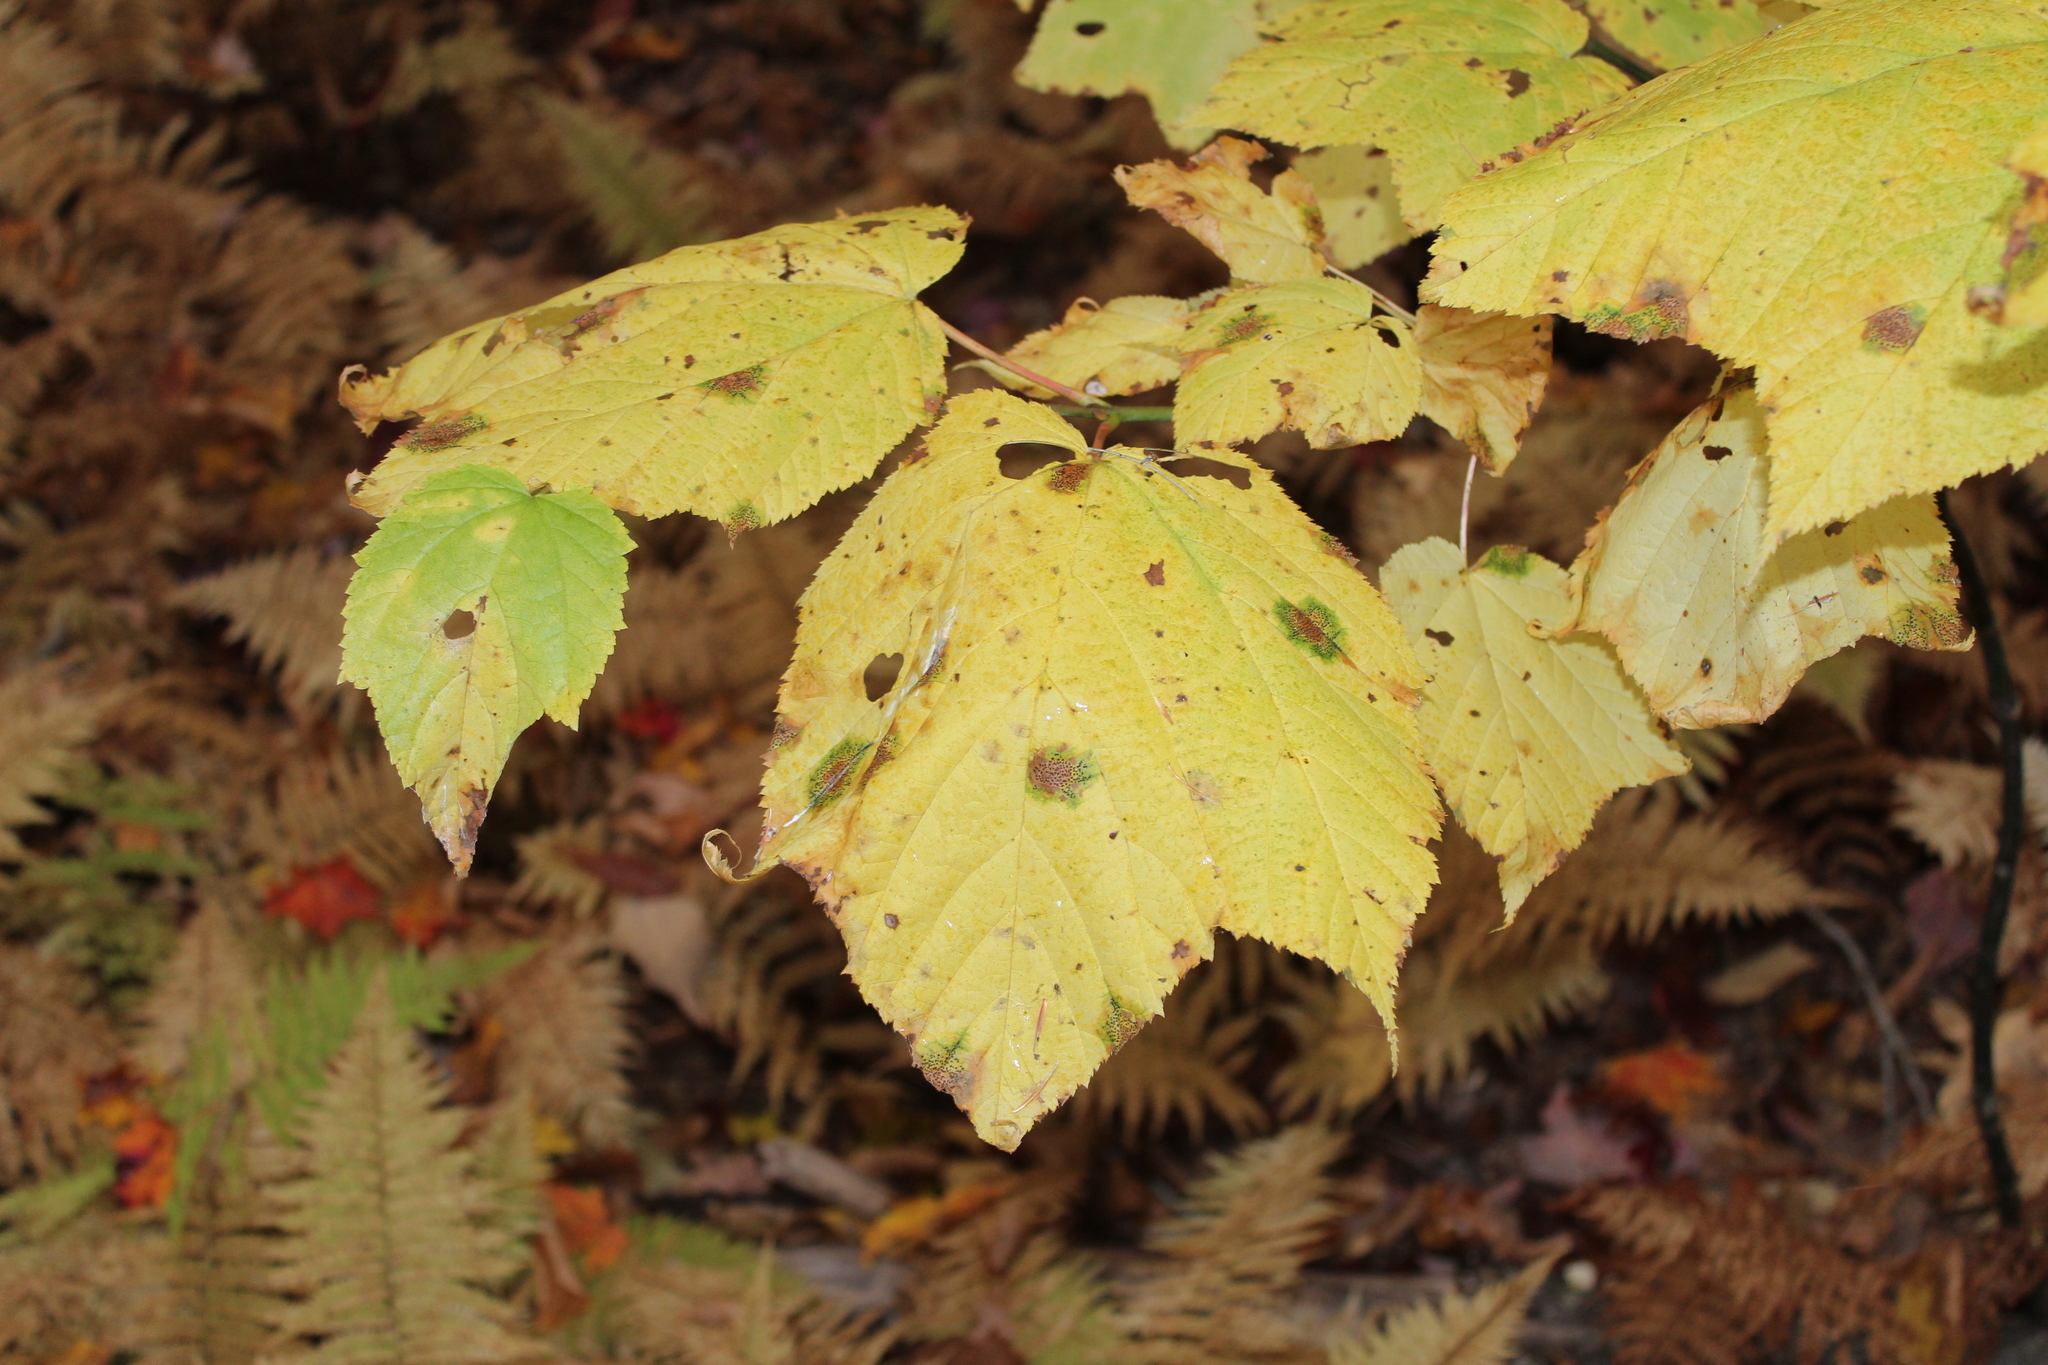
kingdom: Plantae
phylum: Tracheophyta
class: Magnoliopsida
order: Sapindales
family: Sapindaceae
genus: Acer
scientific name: Acer pensylvanicum
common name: Moosewood
